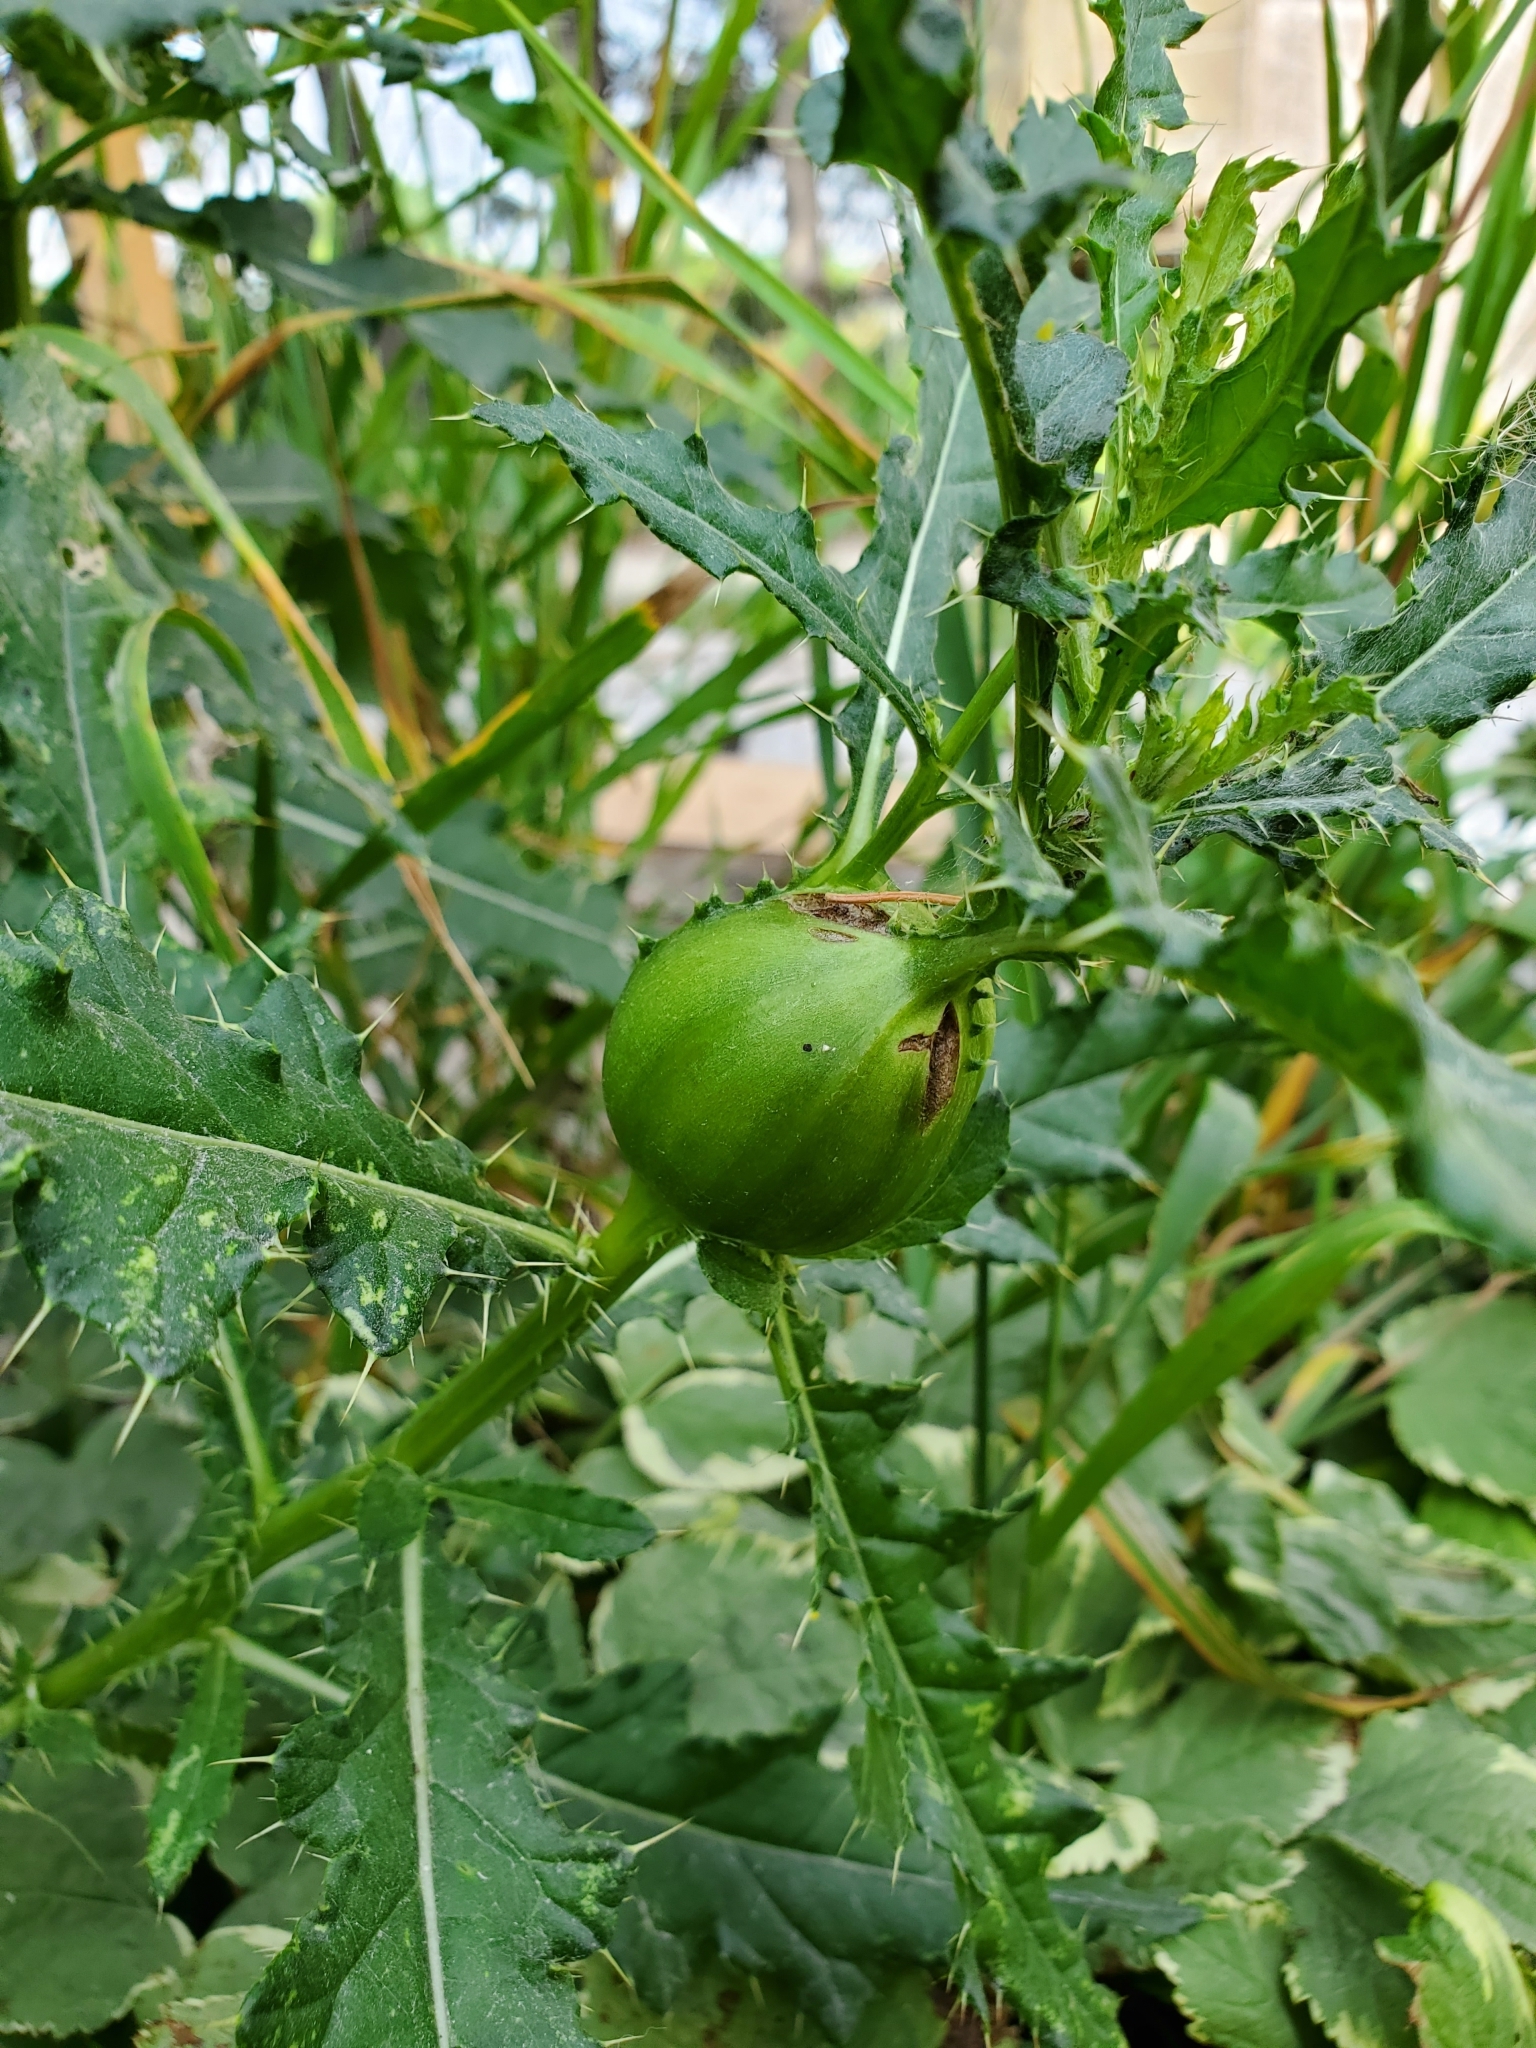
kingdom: Animalia
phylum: Arthropoda
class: Insecta
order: Diptera
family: Tephritidae
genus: Urophora
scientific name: Urophora cardui
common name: Fruit fly
